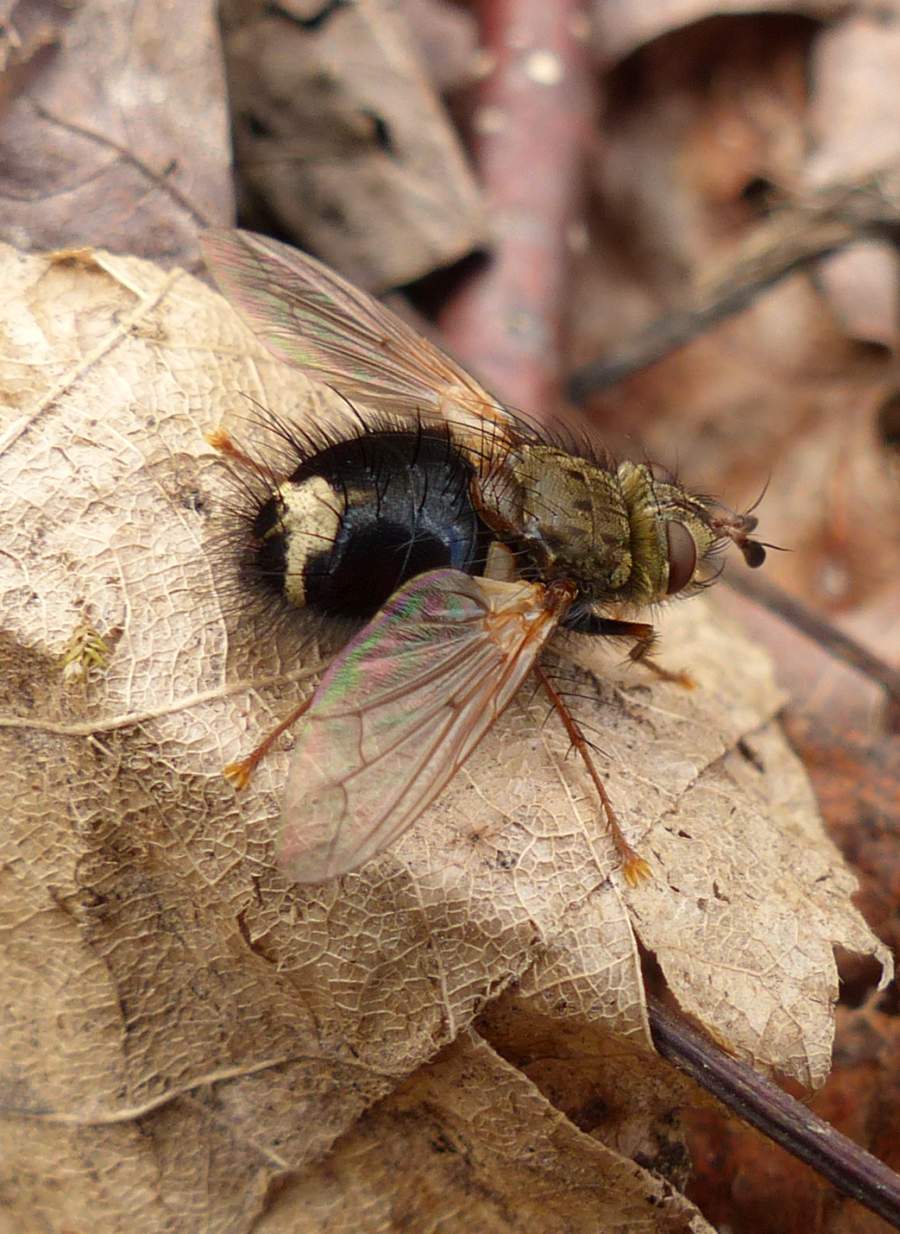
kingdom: Animalia
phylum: Arthropoda
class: Insecta
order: Diptera
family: Tachinidae
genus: Epalpus
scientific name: Epalpus signifer
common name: Early tachinid fly
